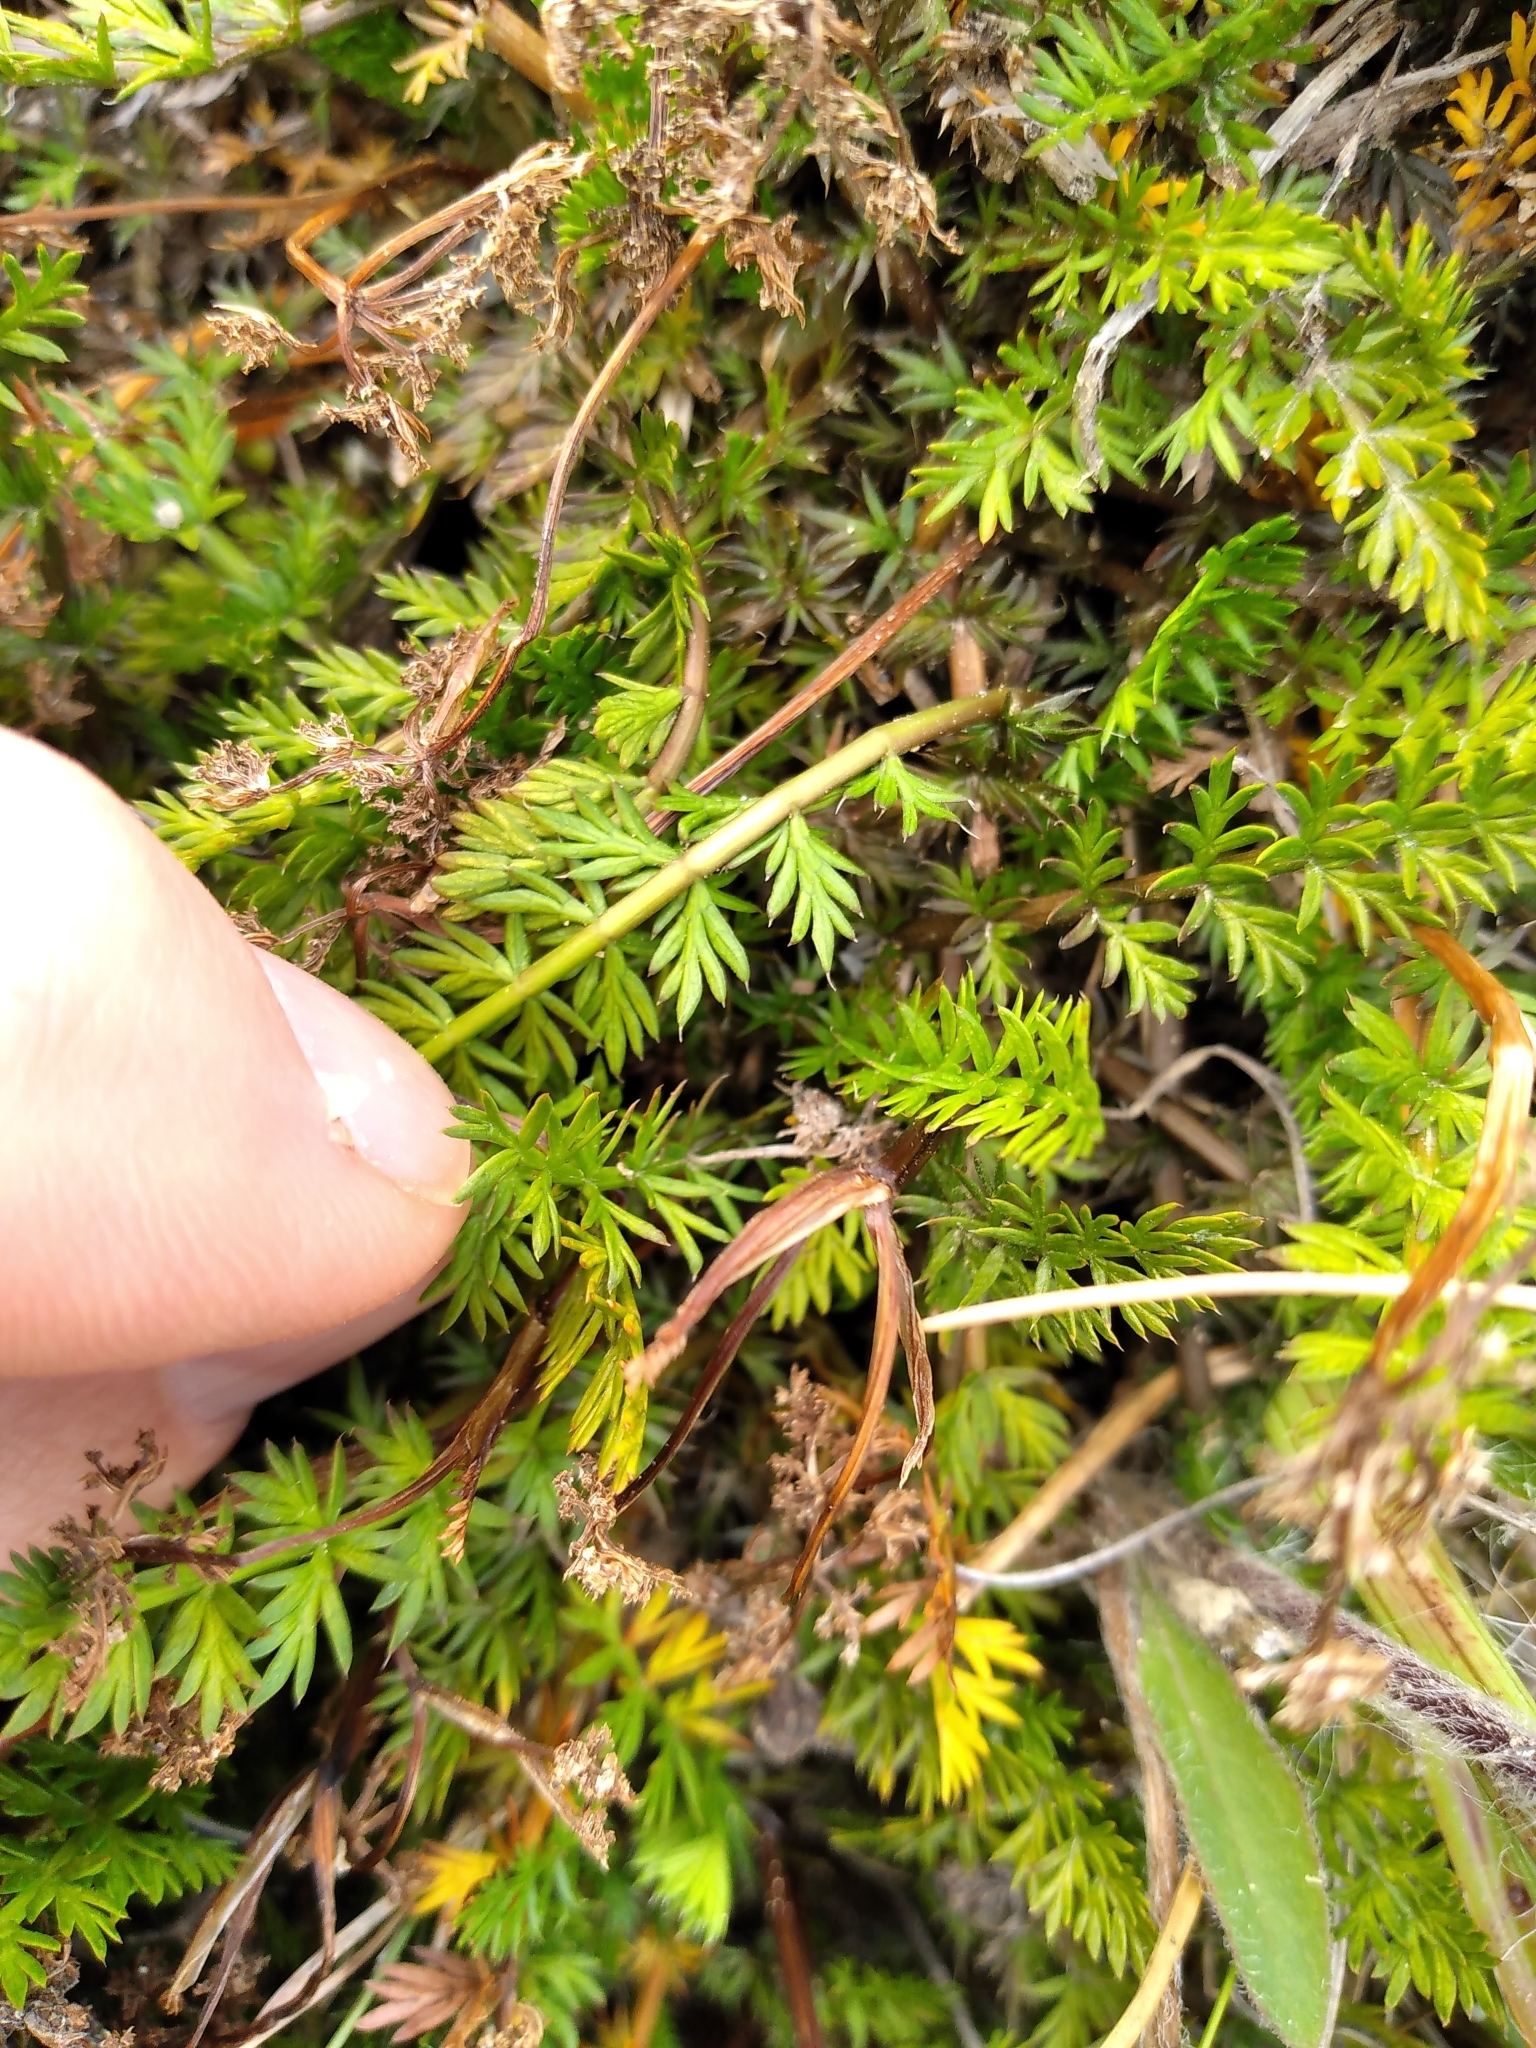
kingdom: Plantae
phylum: Tracheophyta
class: Magnoliopsida
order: Apiales
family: Apiaceae
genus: Anisotome
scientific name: Anisotome flexuosa
